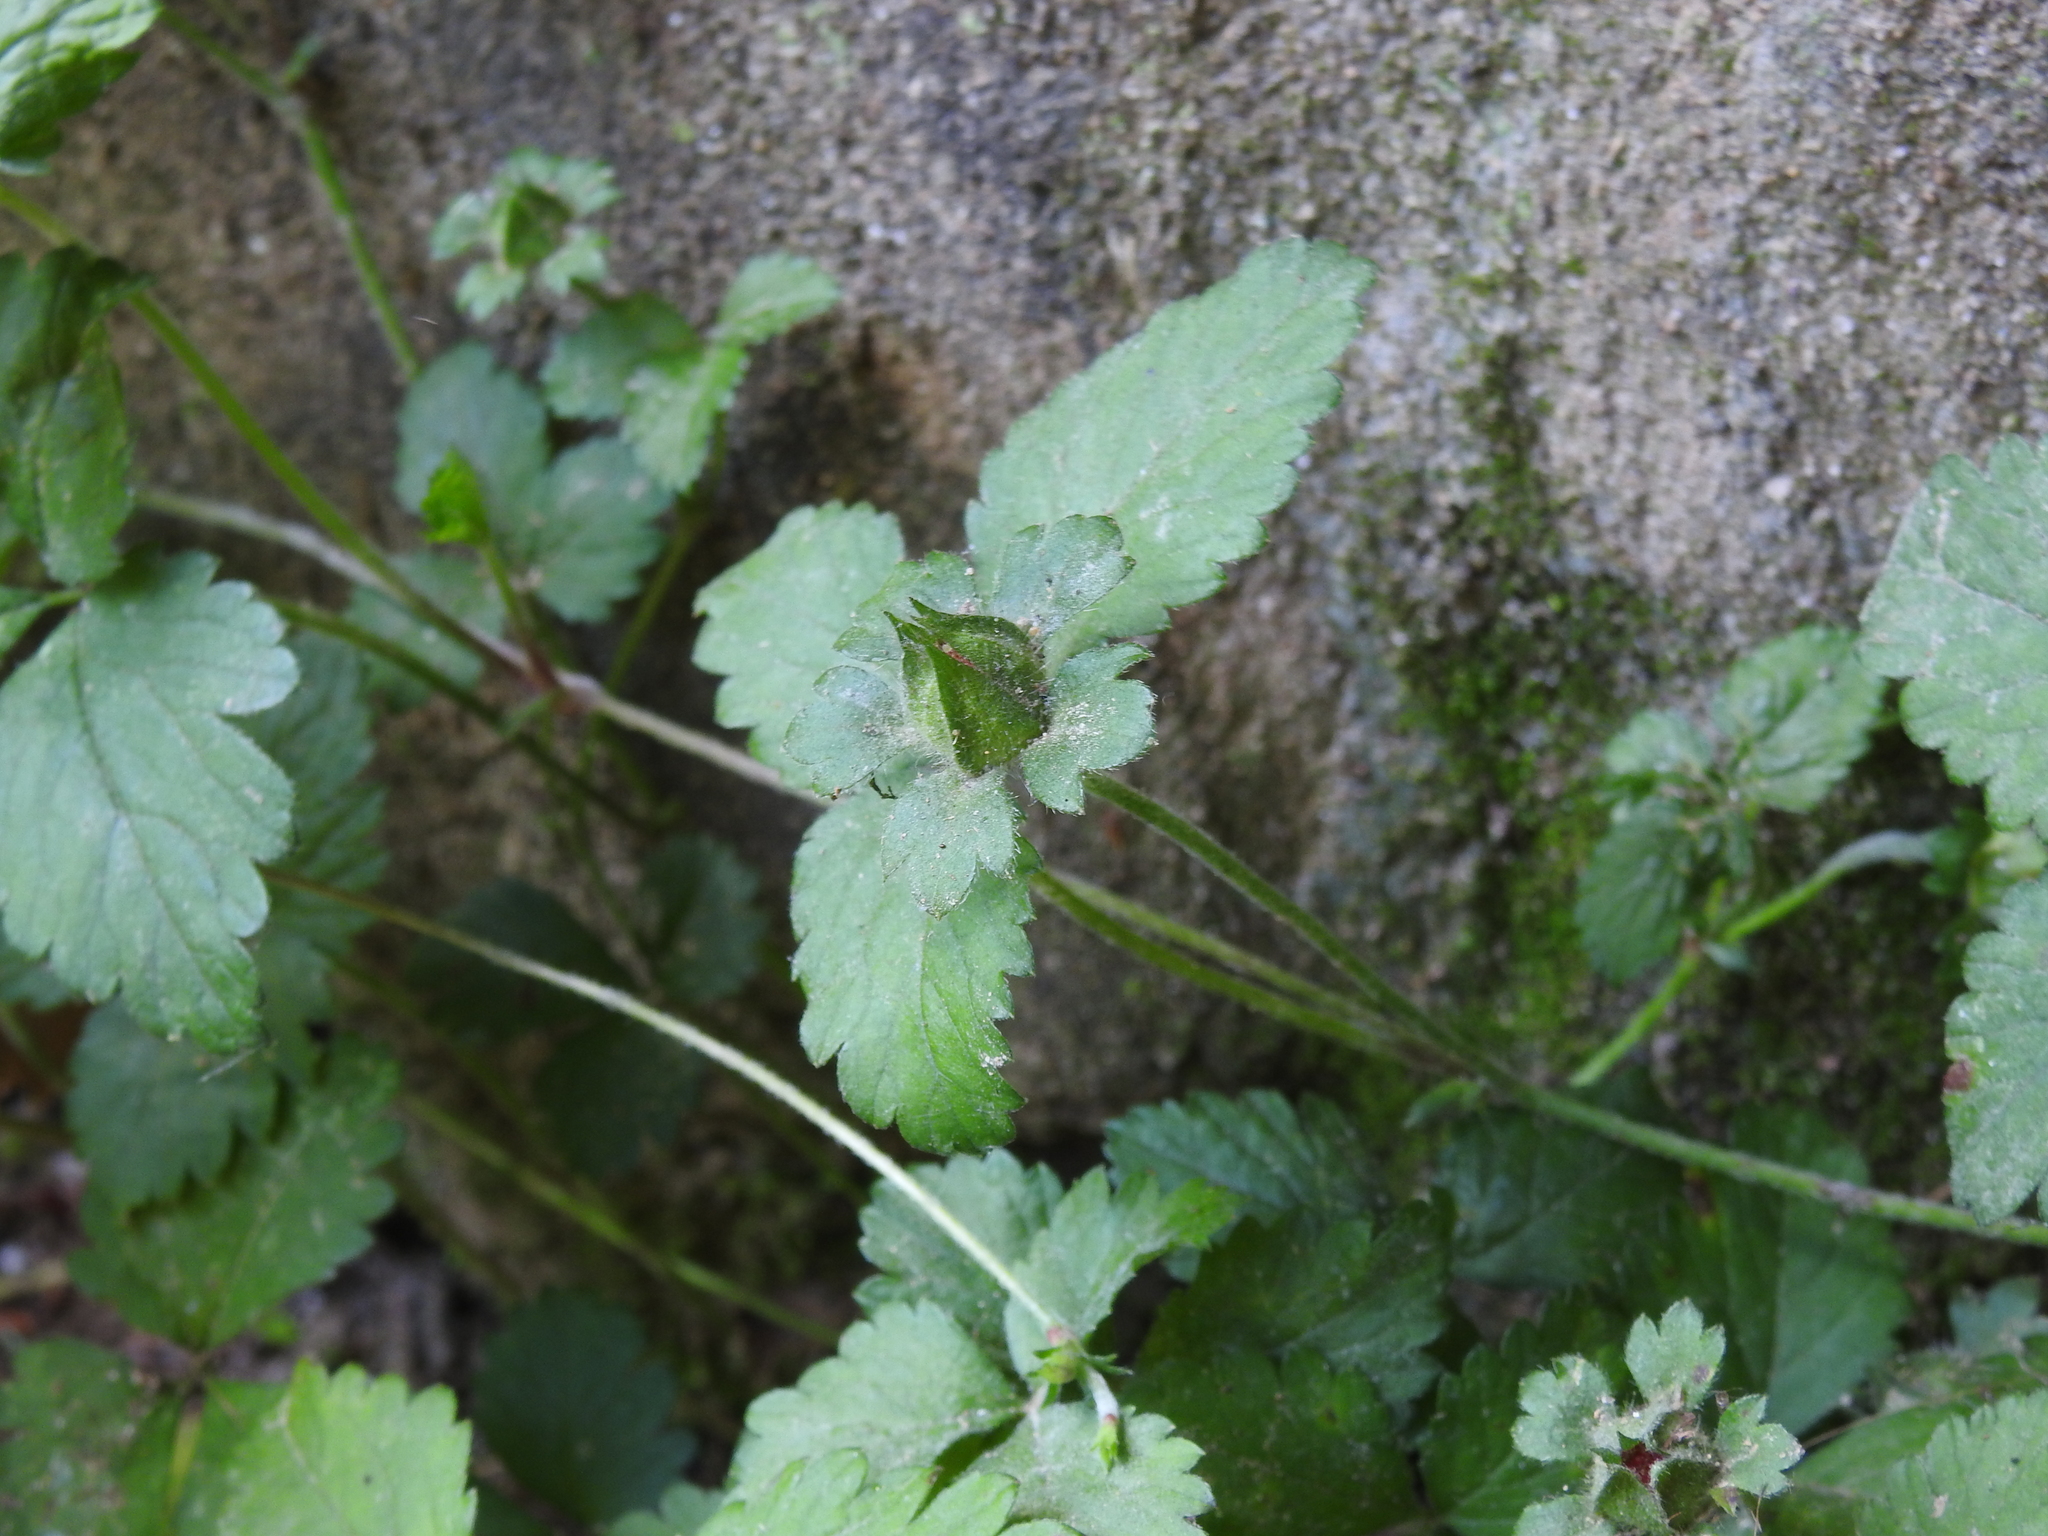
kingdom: Plantae
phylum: Tracheophyta
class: Magnoliopsida
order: Rosales
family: Rosaceae
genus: Potentilla
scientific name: Potentilla indica
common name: Yellow-flowered strawberry
